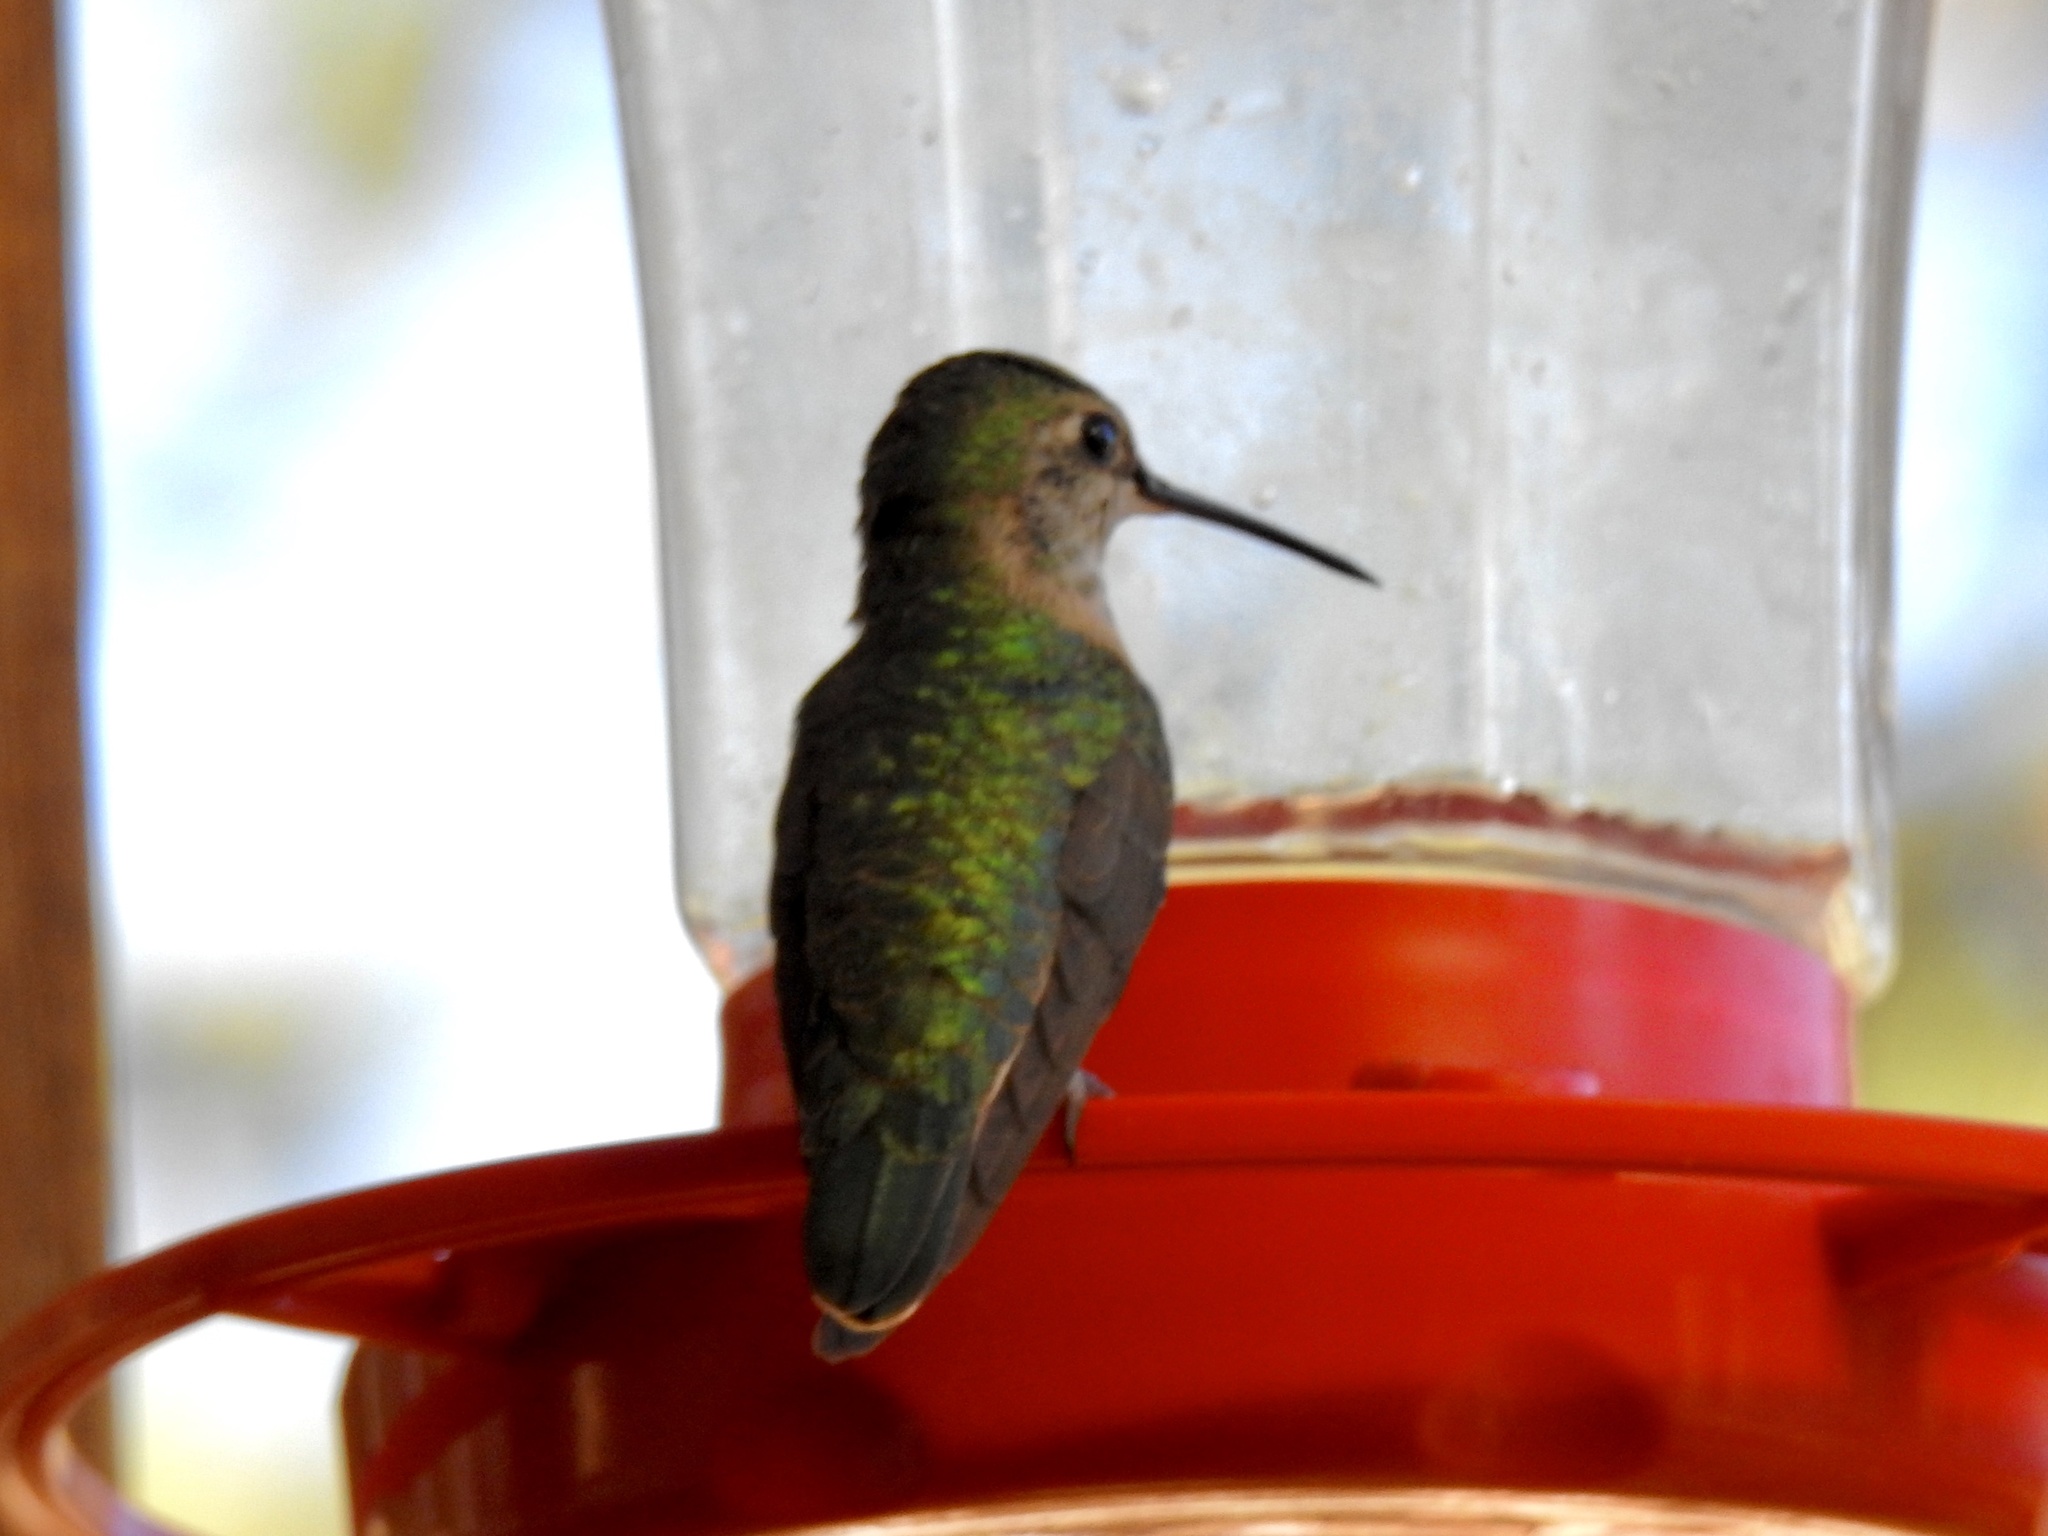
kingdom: Animalia
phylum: Chordata
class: Aves
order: Apodiformes
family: Trochilidae
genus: Selasphorus
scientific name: Selasphorus platycercus
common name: Broad-tailed hummingbird
